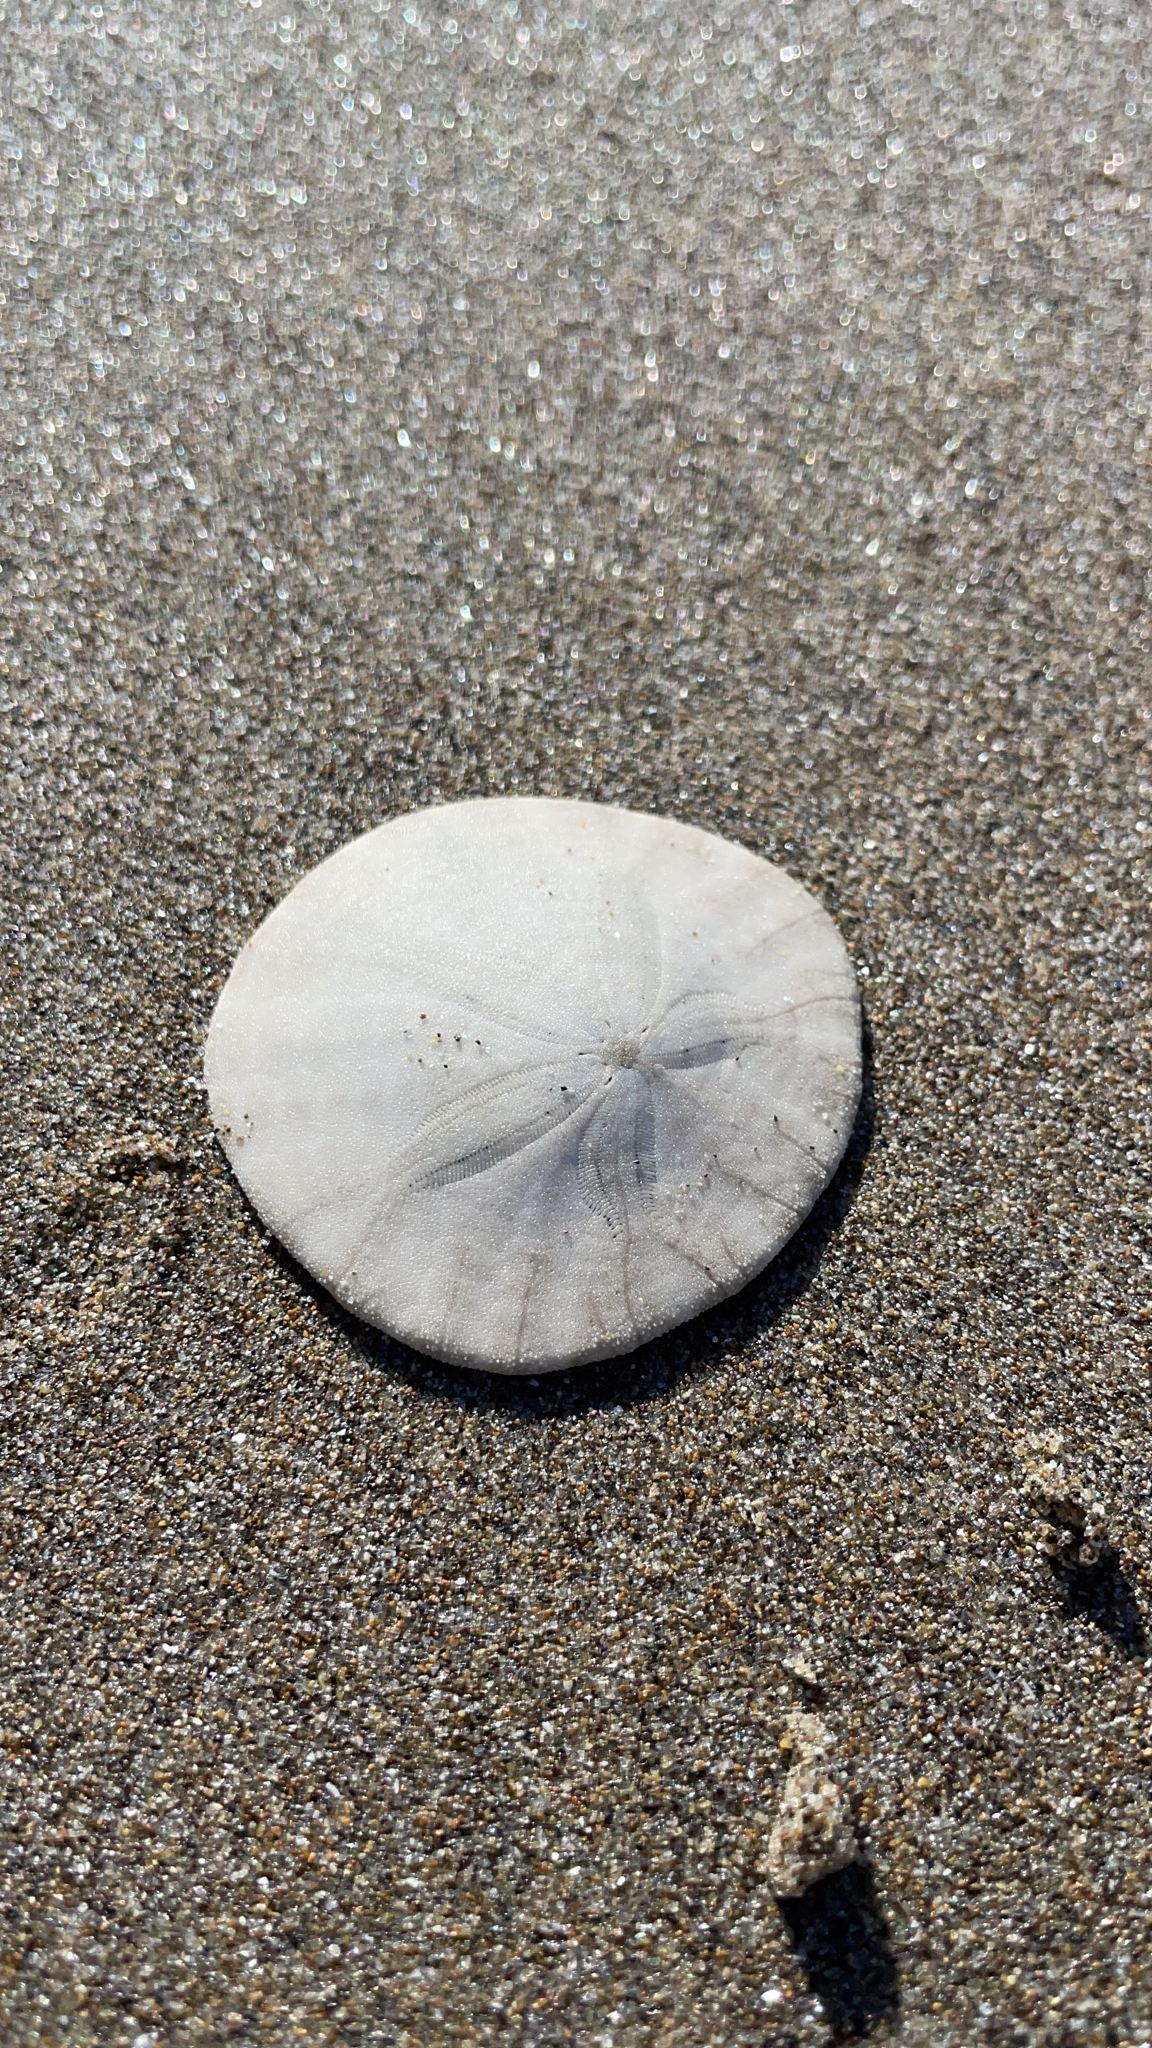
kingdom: Animalia
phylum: Echinodermata
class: Echinoidea
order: Echinolampadacea
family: Dendrasteridae
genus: Dendraster
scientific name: Dendraster excentricus
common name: Eccentric sand dollar sea urchin
